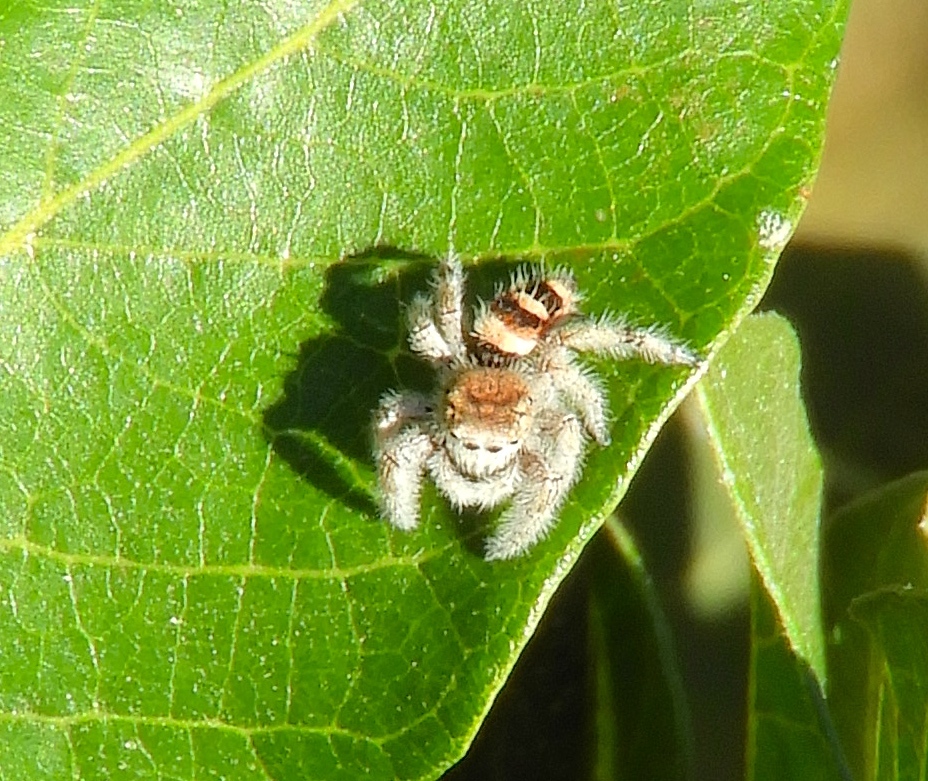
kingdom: Animalia
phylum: Arthropoda
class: Arachnida
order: Araneae
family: Salticidae
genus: Phidippus
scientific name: Phidippus pacosauritus
